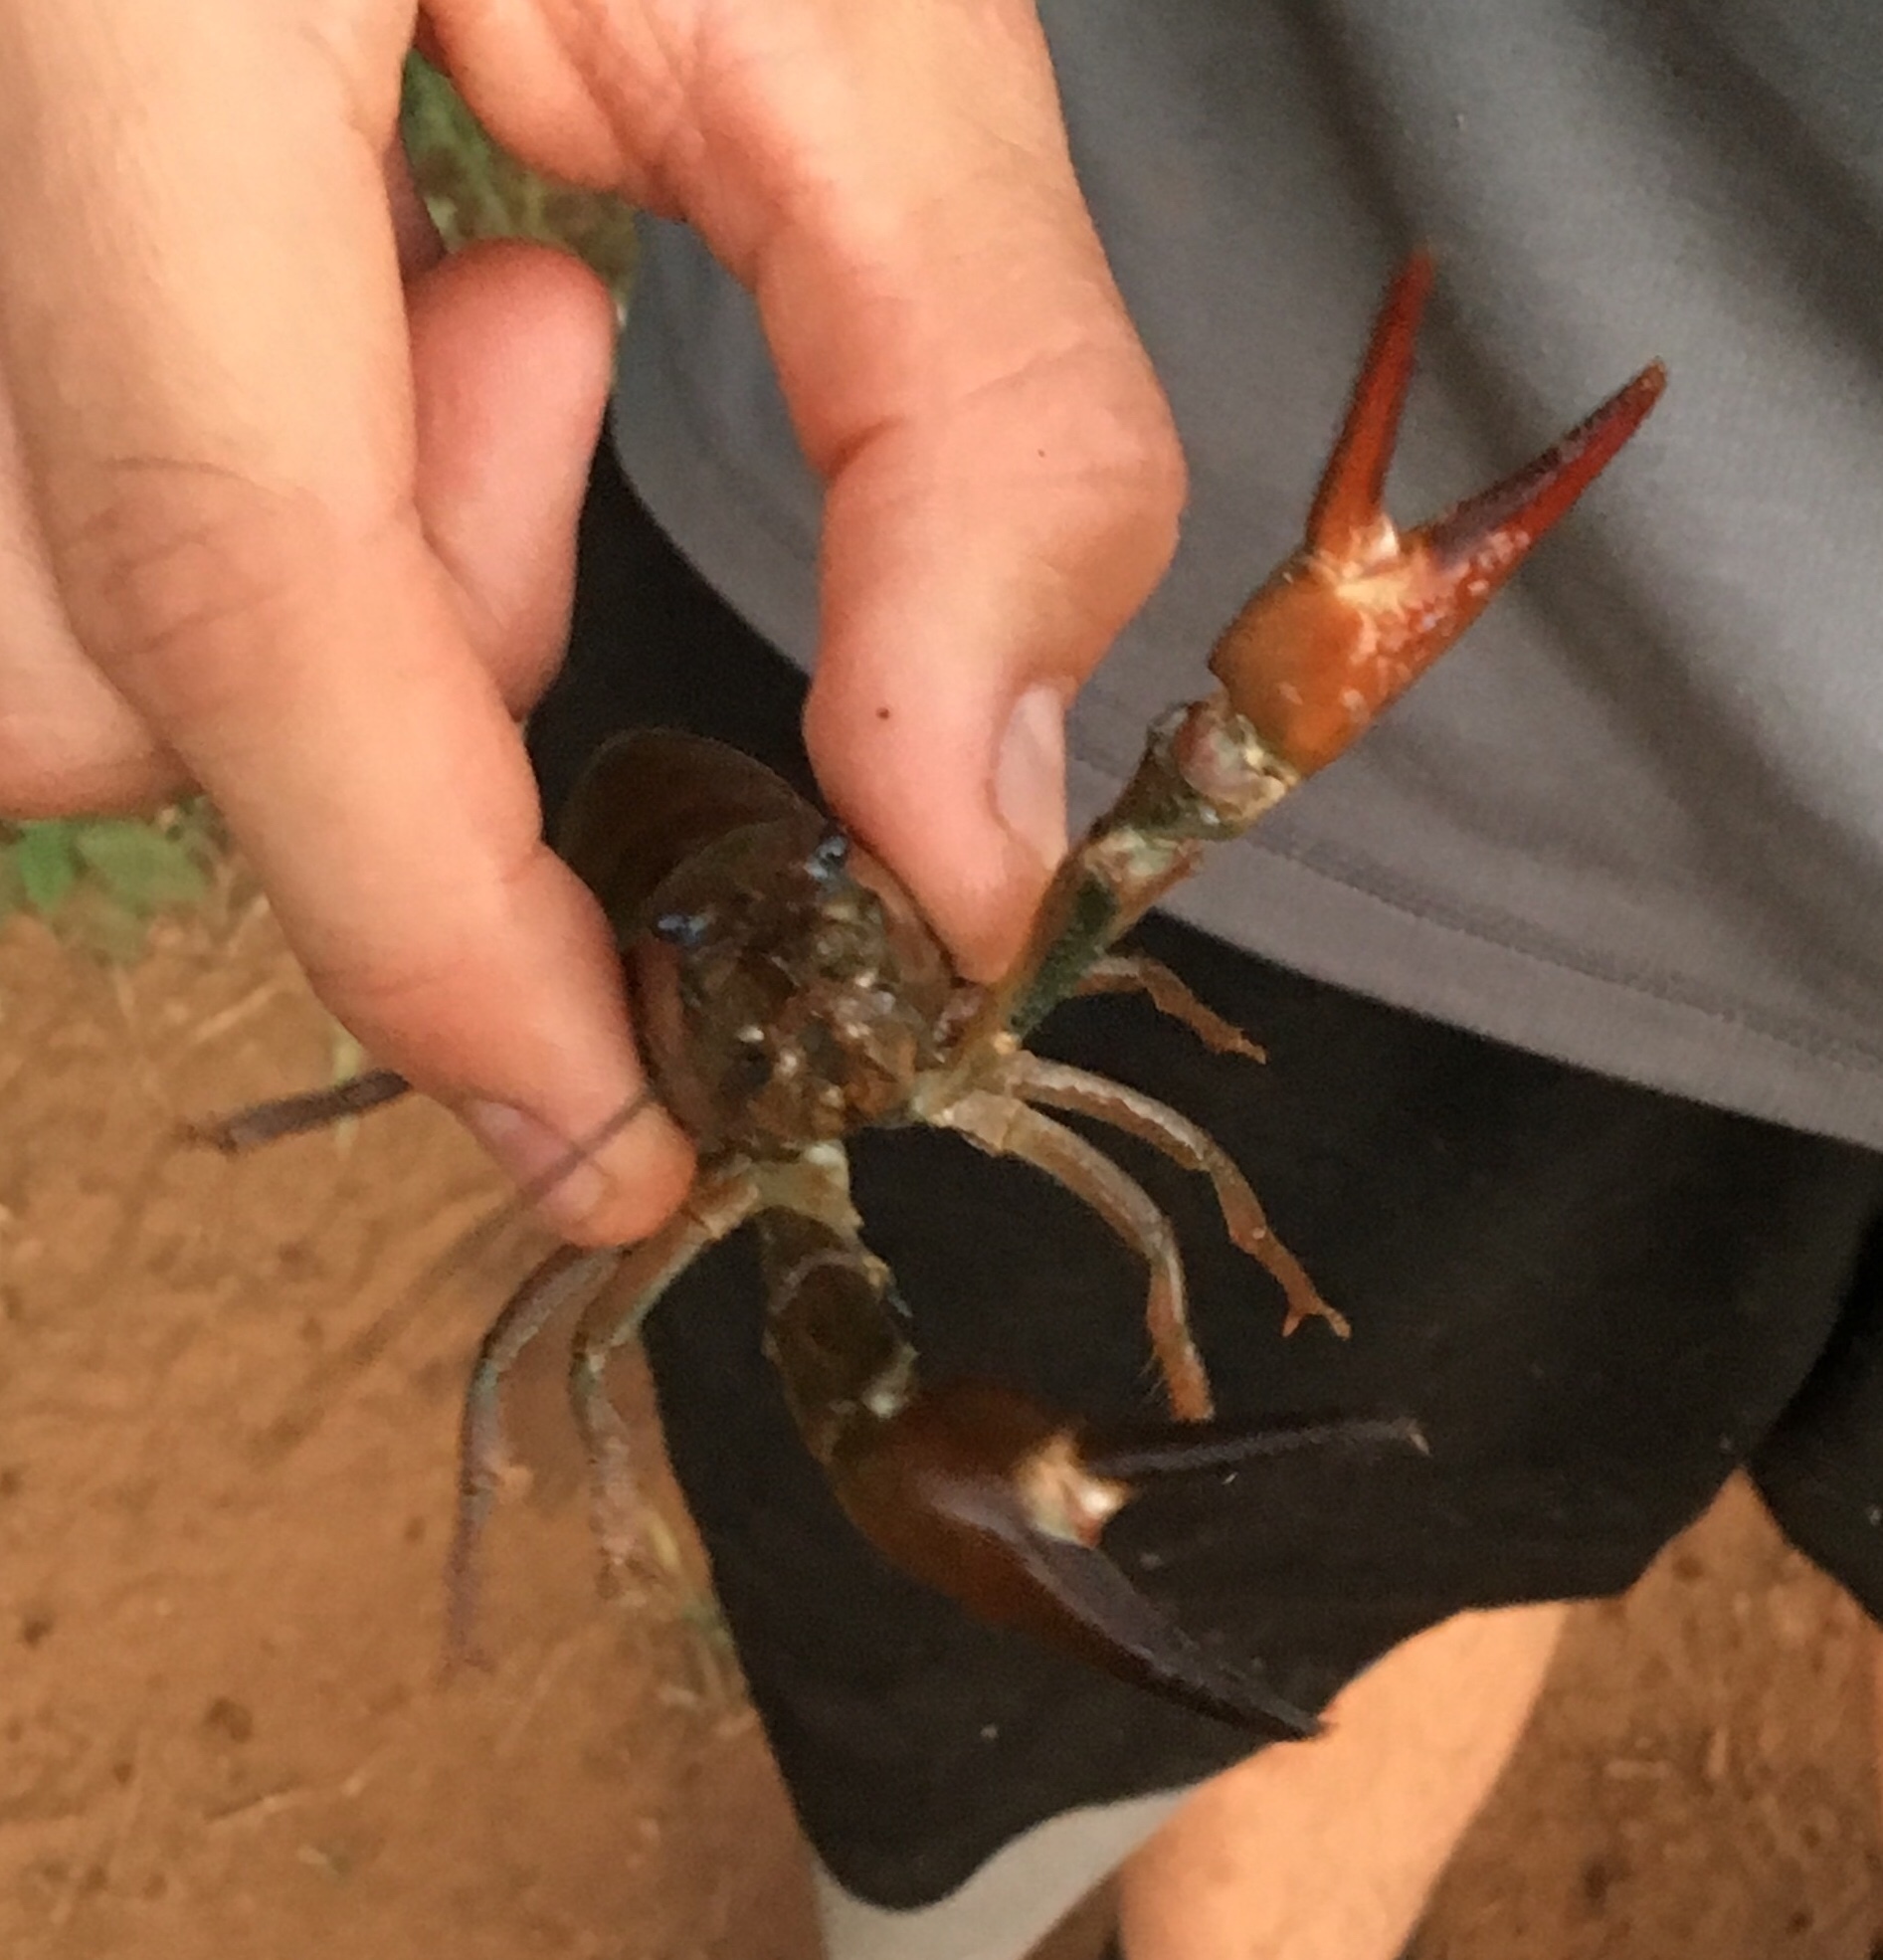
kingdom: Animalia
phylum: Arthropoda
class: Malacostraca
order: Decapoda
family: Astacidae
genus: Pacifastacus
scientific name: Pacifastacus leniusculus
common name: Signal crayfish
